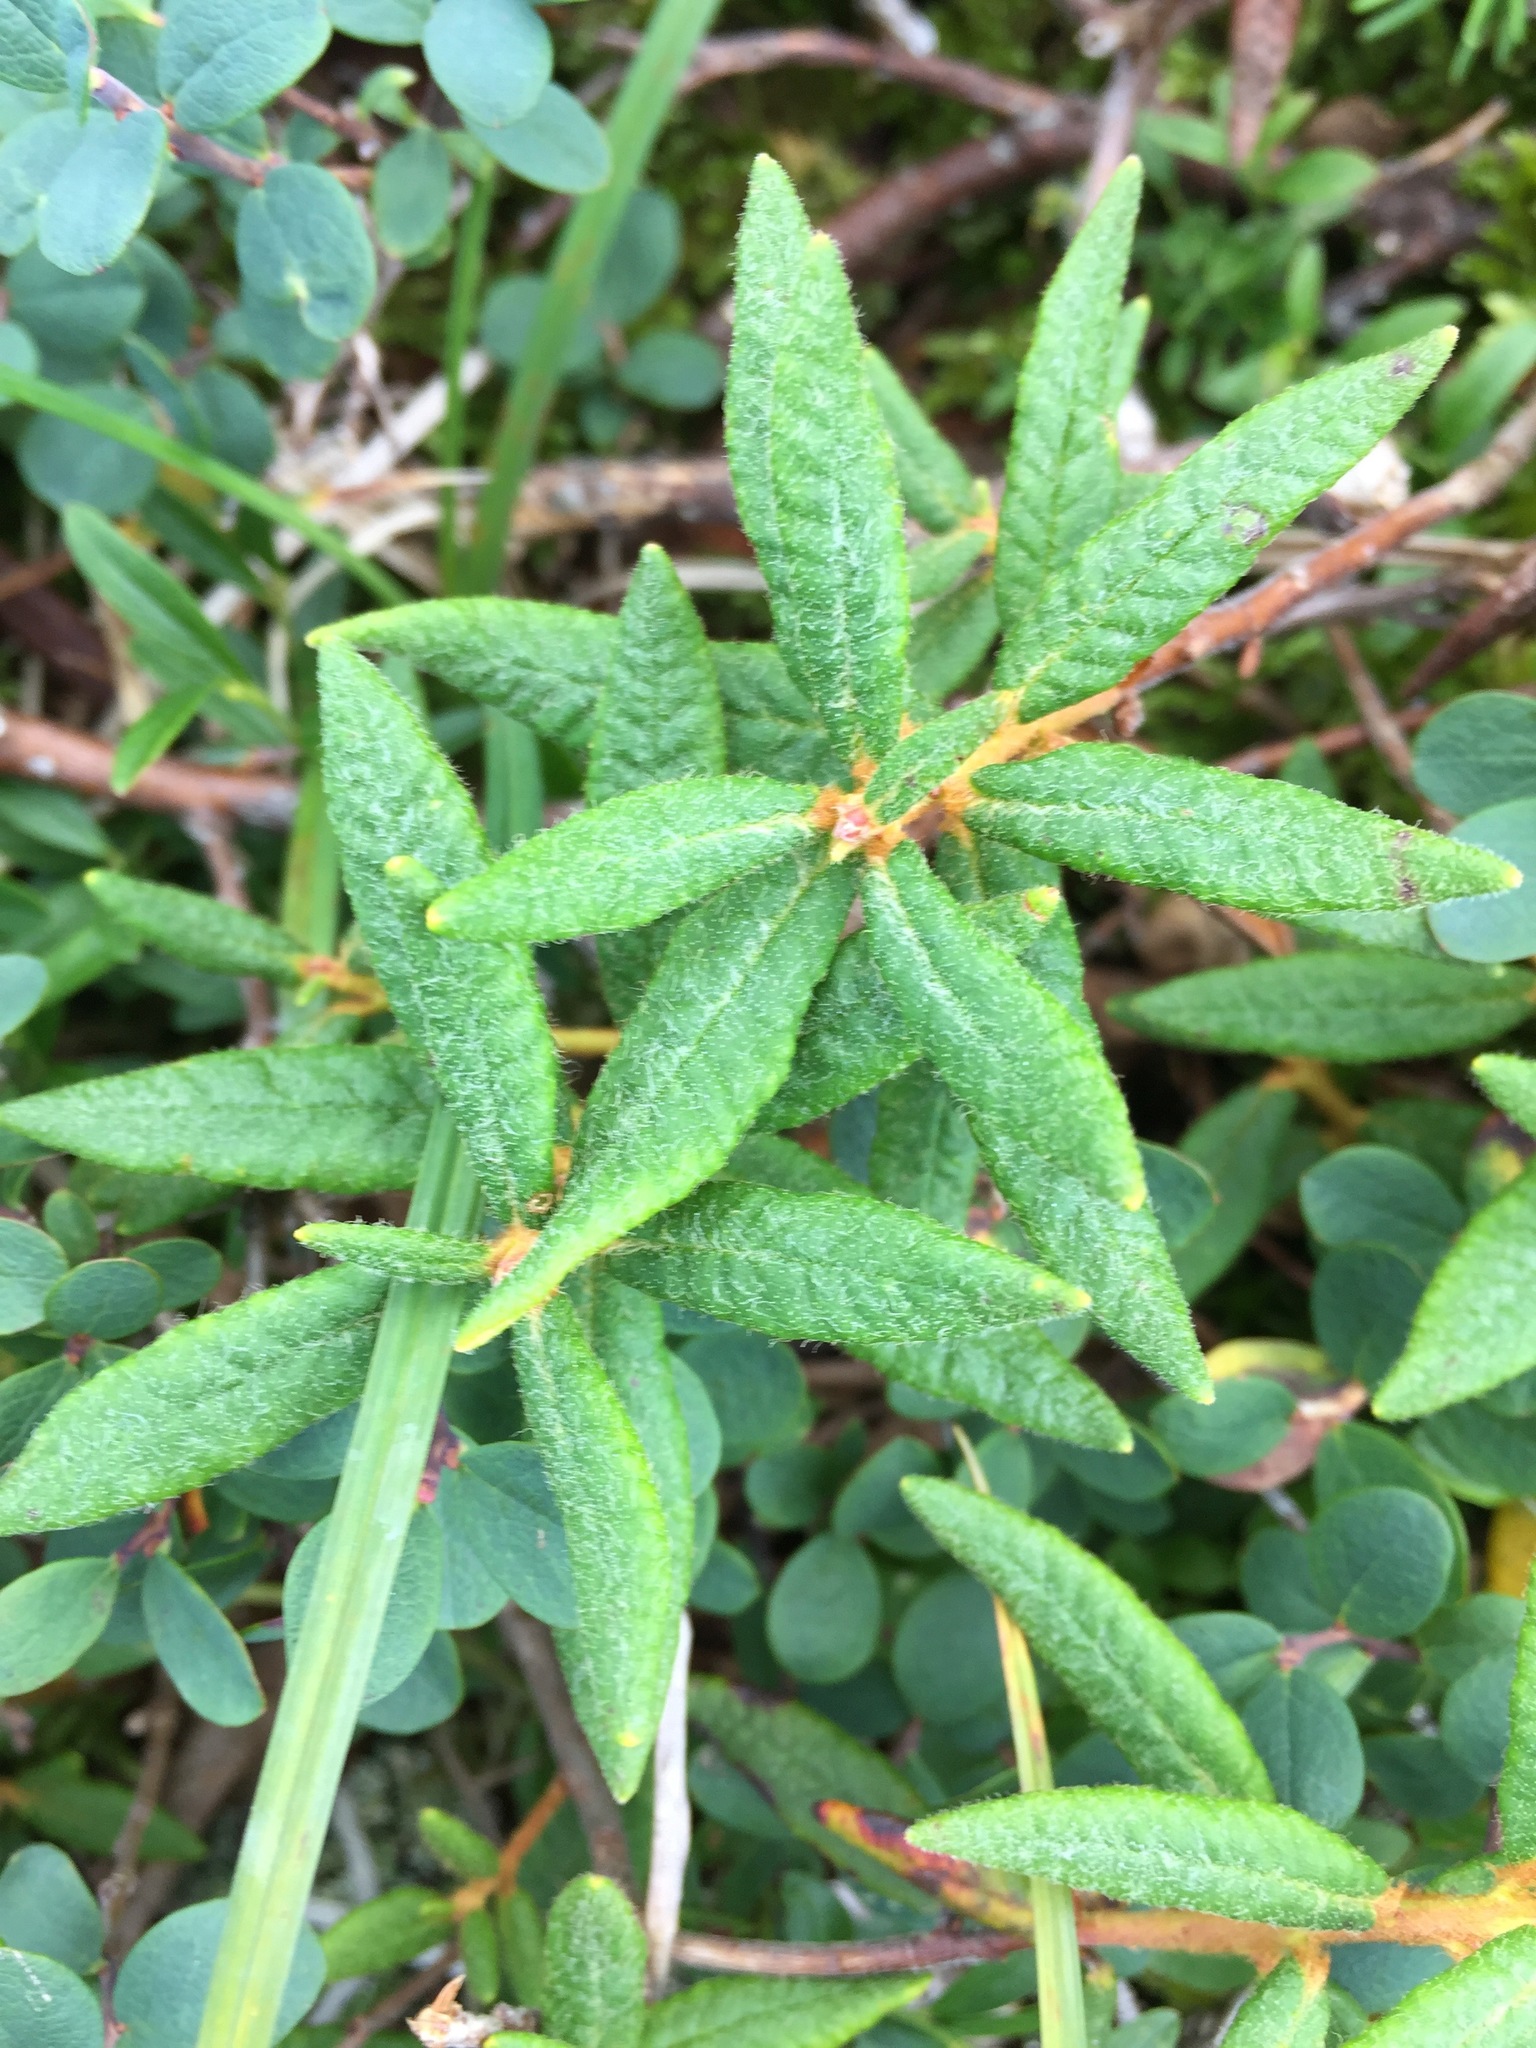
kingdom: Plantae
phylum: Tracheophyta
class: Magnoliopsida
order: Ericales
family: Ericaceae
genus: Rhododendron
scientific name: Rhododendron groenlandicum
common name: Bog labrador tea
